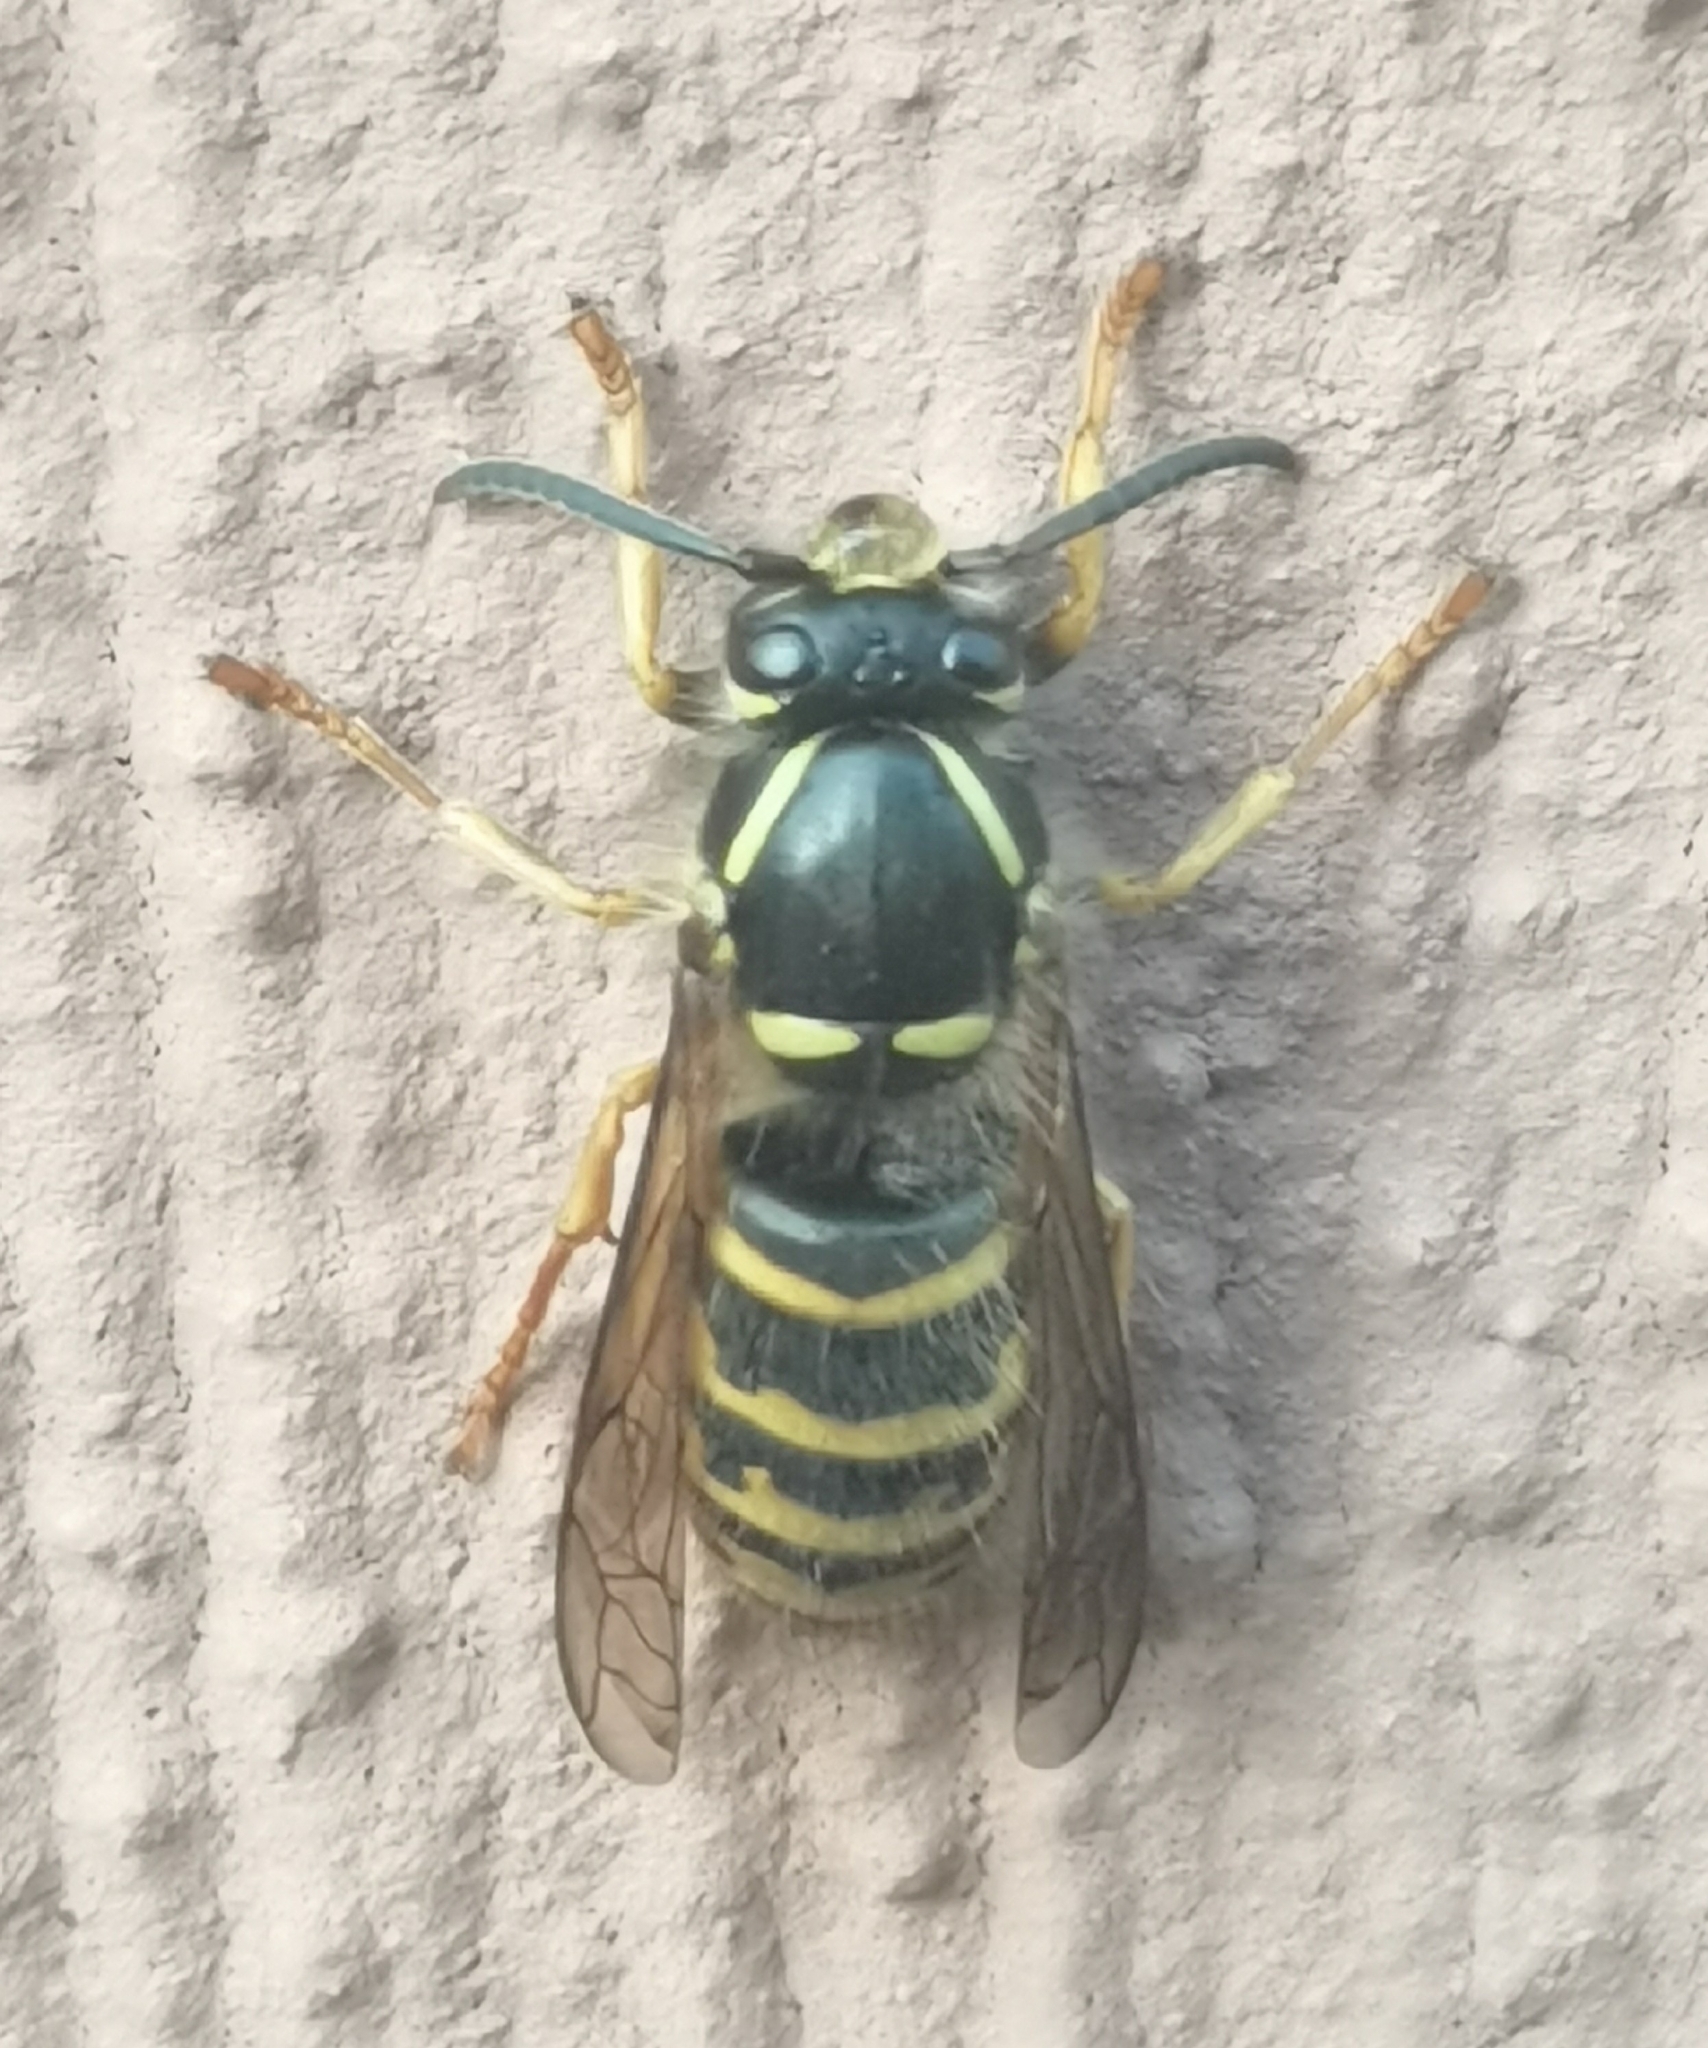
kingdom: Animalia
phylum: Arthropoda
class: Insecta
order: Hymenoptera
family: Vespidae
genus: Dolichovespula
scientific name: Dolichovespula saxonica
